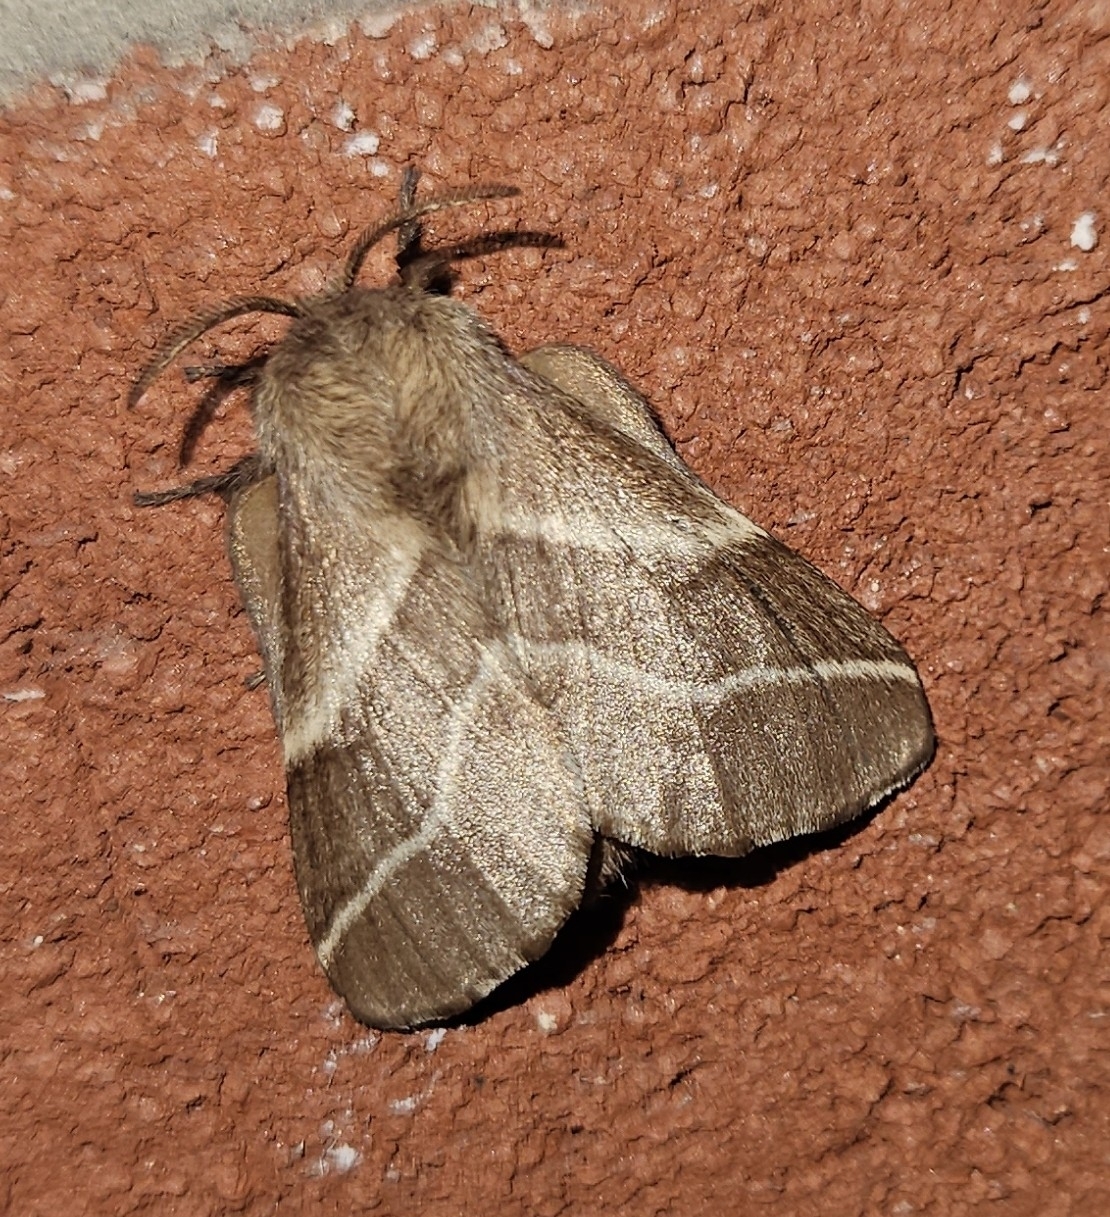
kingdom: Animalia
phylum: Arthropoda
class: Insecta
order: Lepidoptera
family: Lasiocampidae
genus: Malacosoma
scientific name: Malacosoma americana
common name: Eastern tent caterpillar moth
